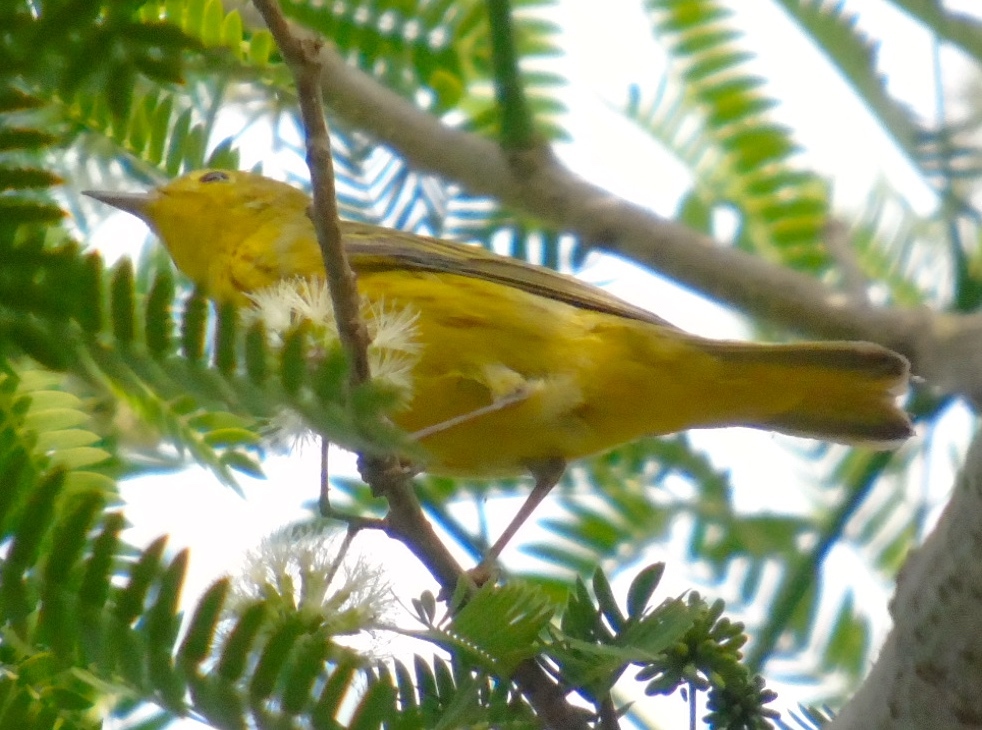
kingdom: Animalia
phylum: Chordata
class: Aves
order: Passeriformes
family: Parulidae
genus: Setophaga
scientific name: Setophaga petechia
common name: Yellow warbler
